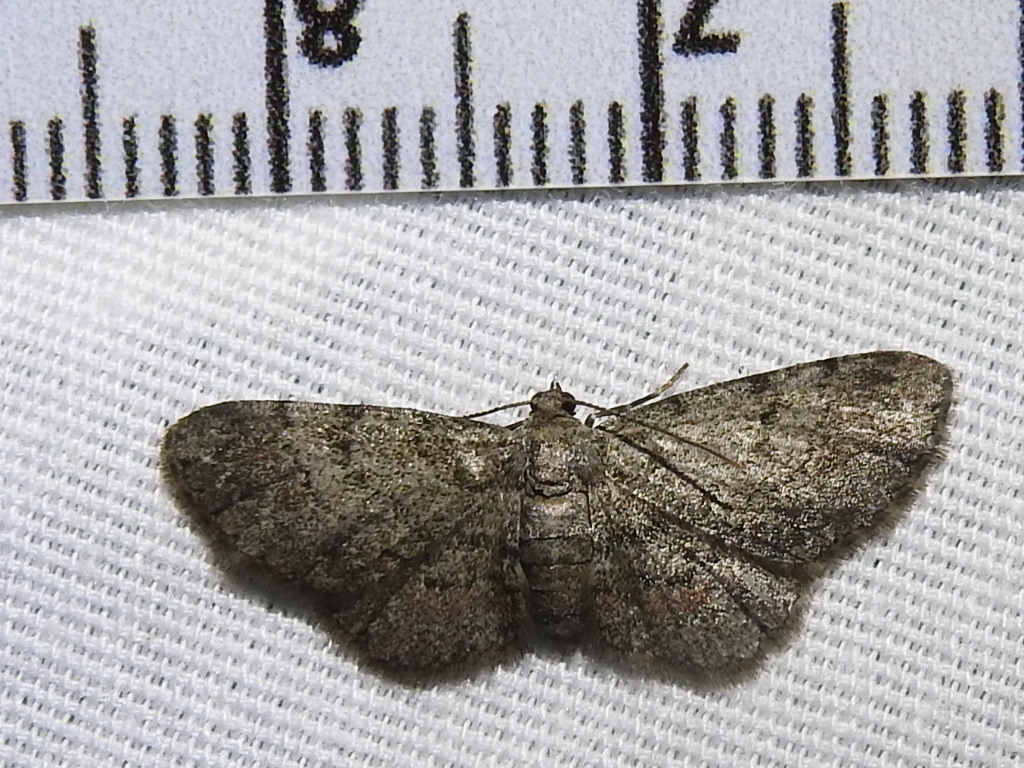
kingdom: Animalia
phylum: Arthropoda
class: Insecta
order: Lepidoptera
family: Geometridae
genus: Glenoides
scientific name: Glenoides texanaria
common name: Texas gray
